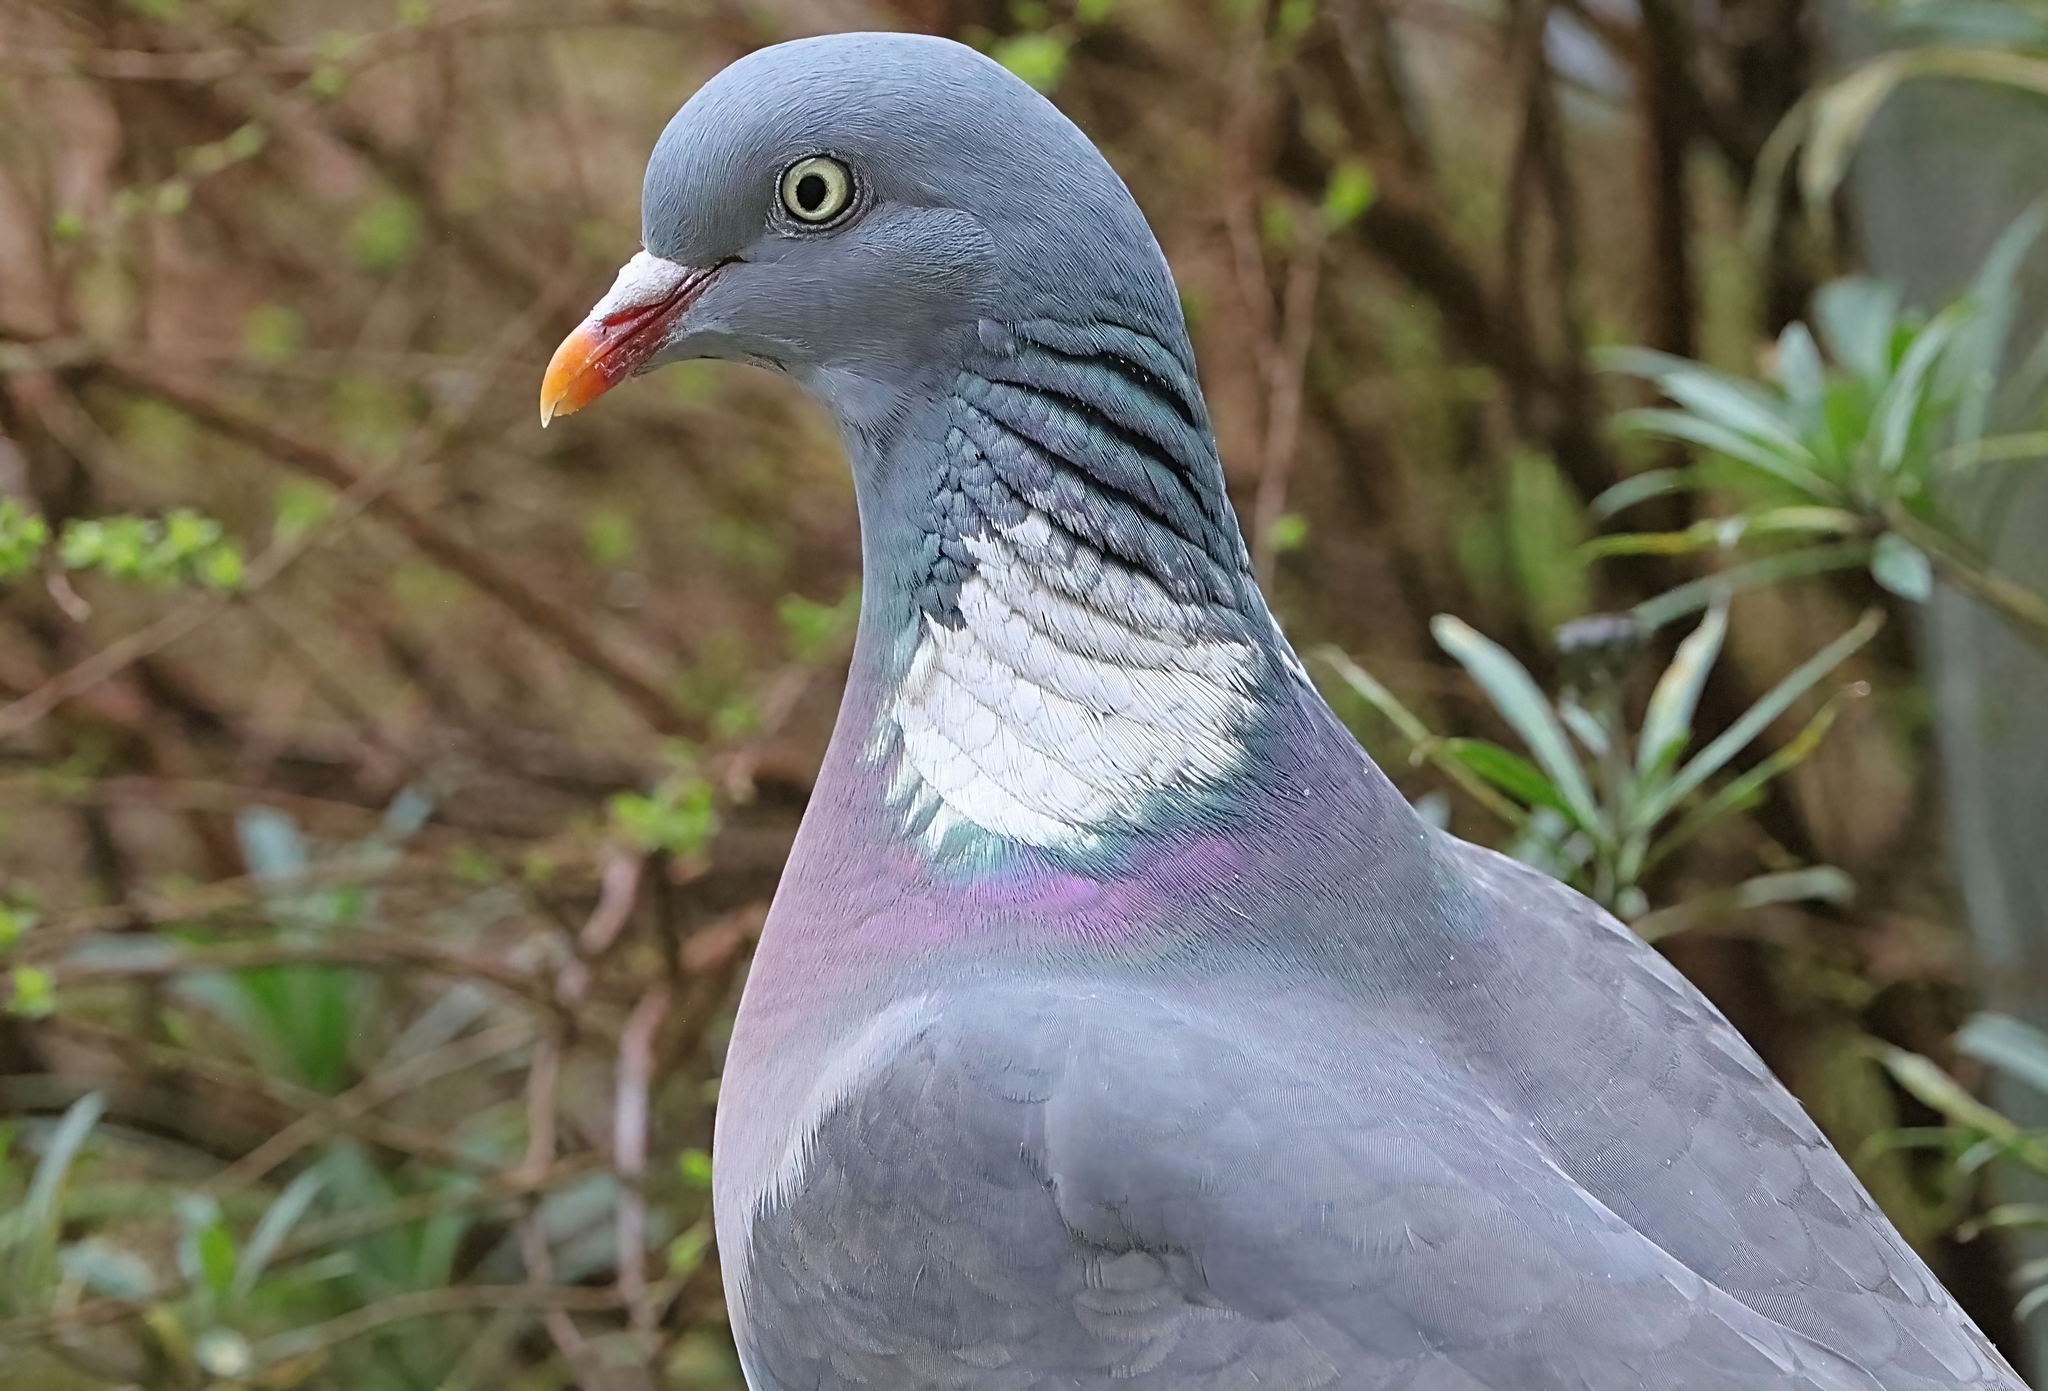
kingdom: Animalia
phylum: Chordata
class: Aves
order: Columbiformes
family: Columbidae
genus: Columba
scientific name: Columba palumbus
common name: Common wood pigeon
